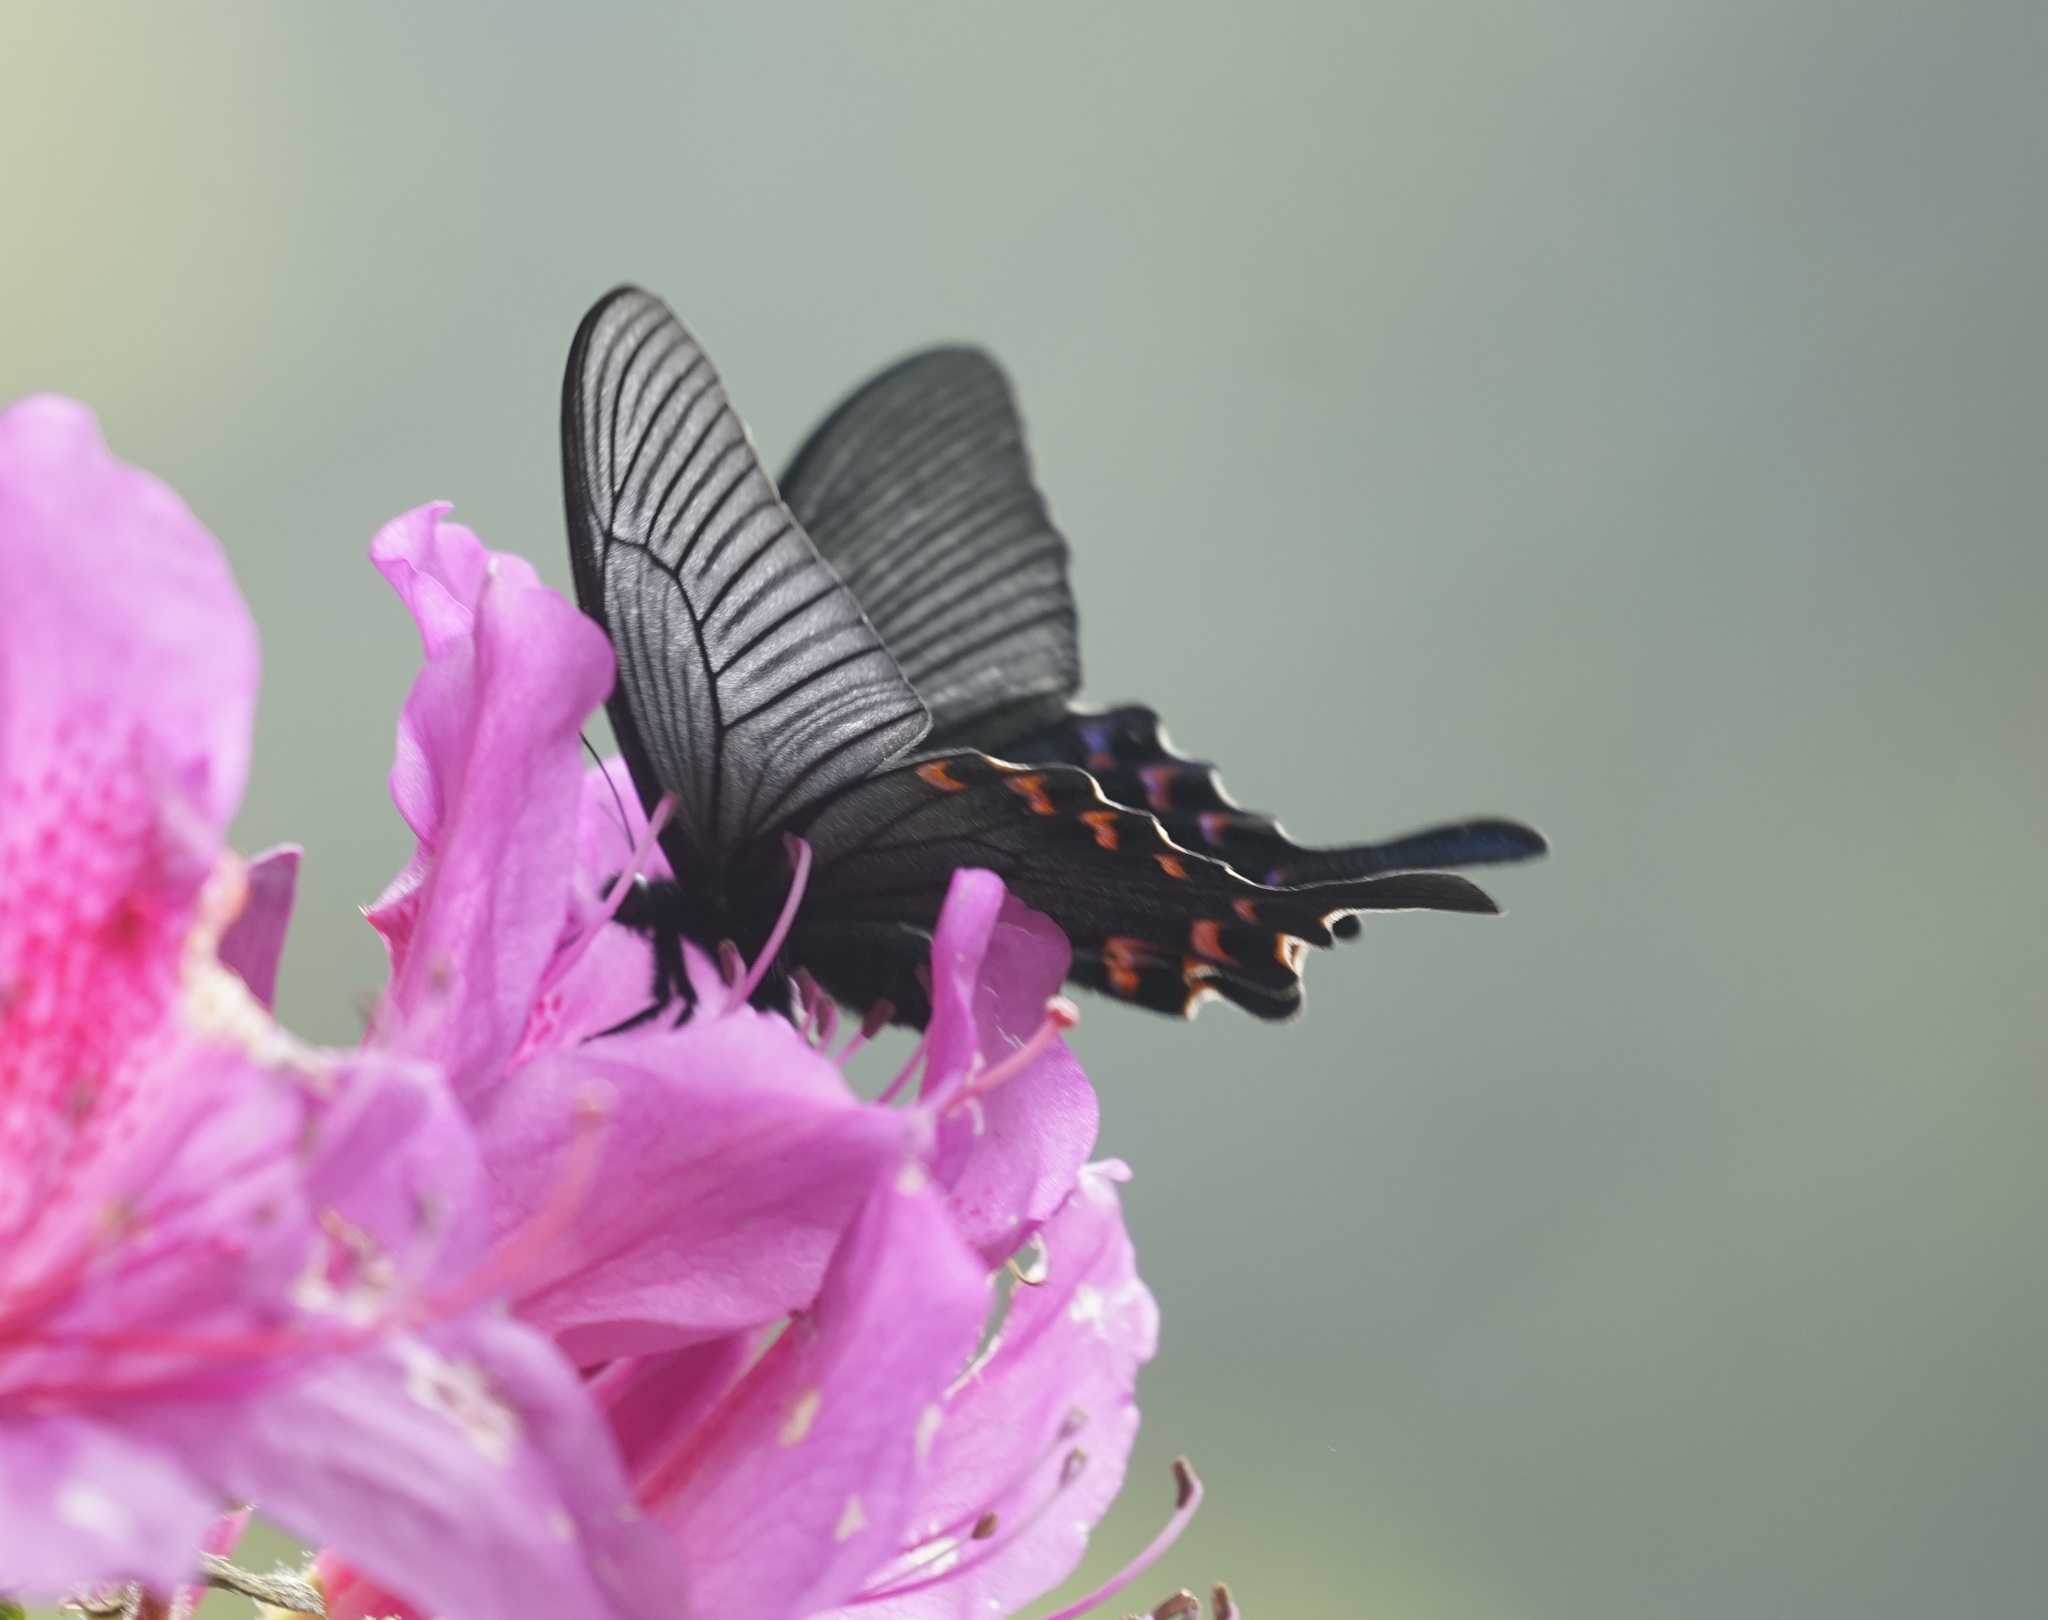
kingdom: Animalia
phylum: Arthropoda
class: Insecta
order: Lepidoptera
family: Papilionidae
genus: Papilio
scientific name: Papilio bianor
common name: Common peacock
